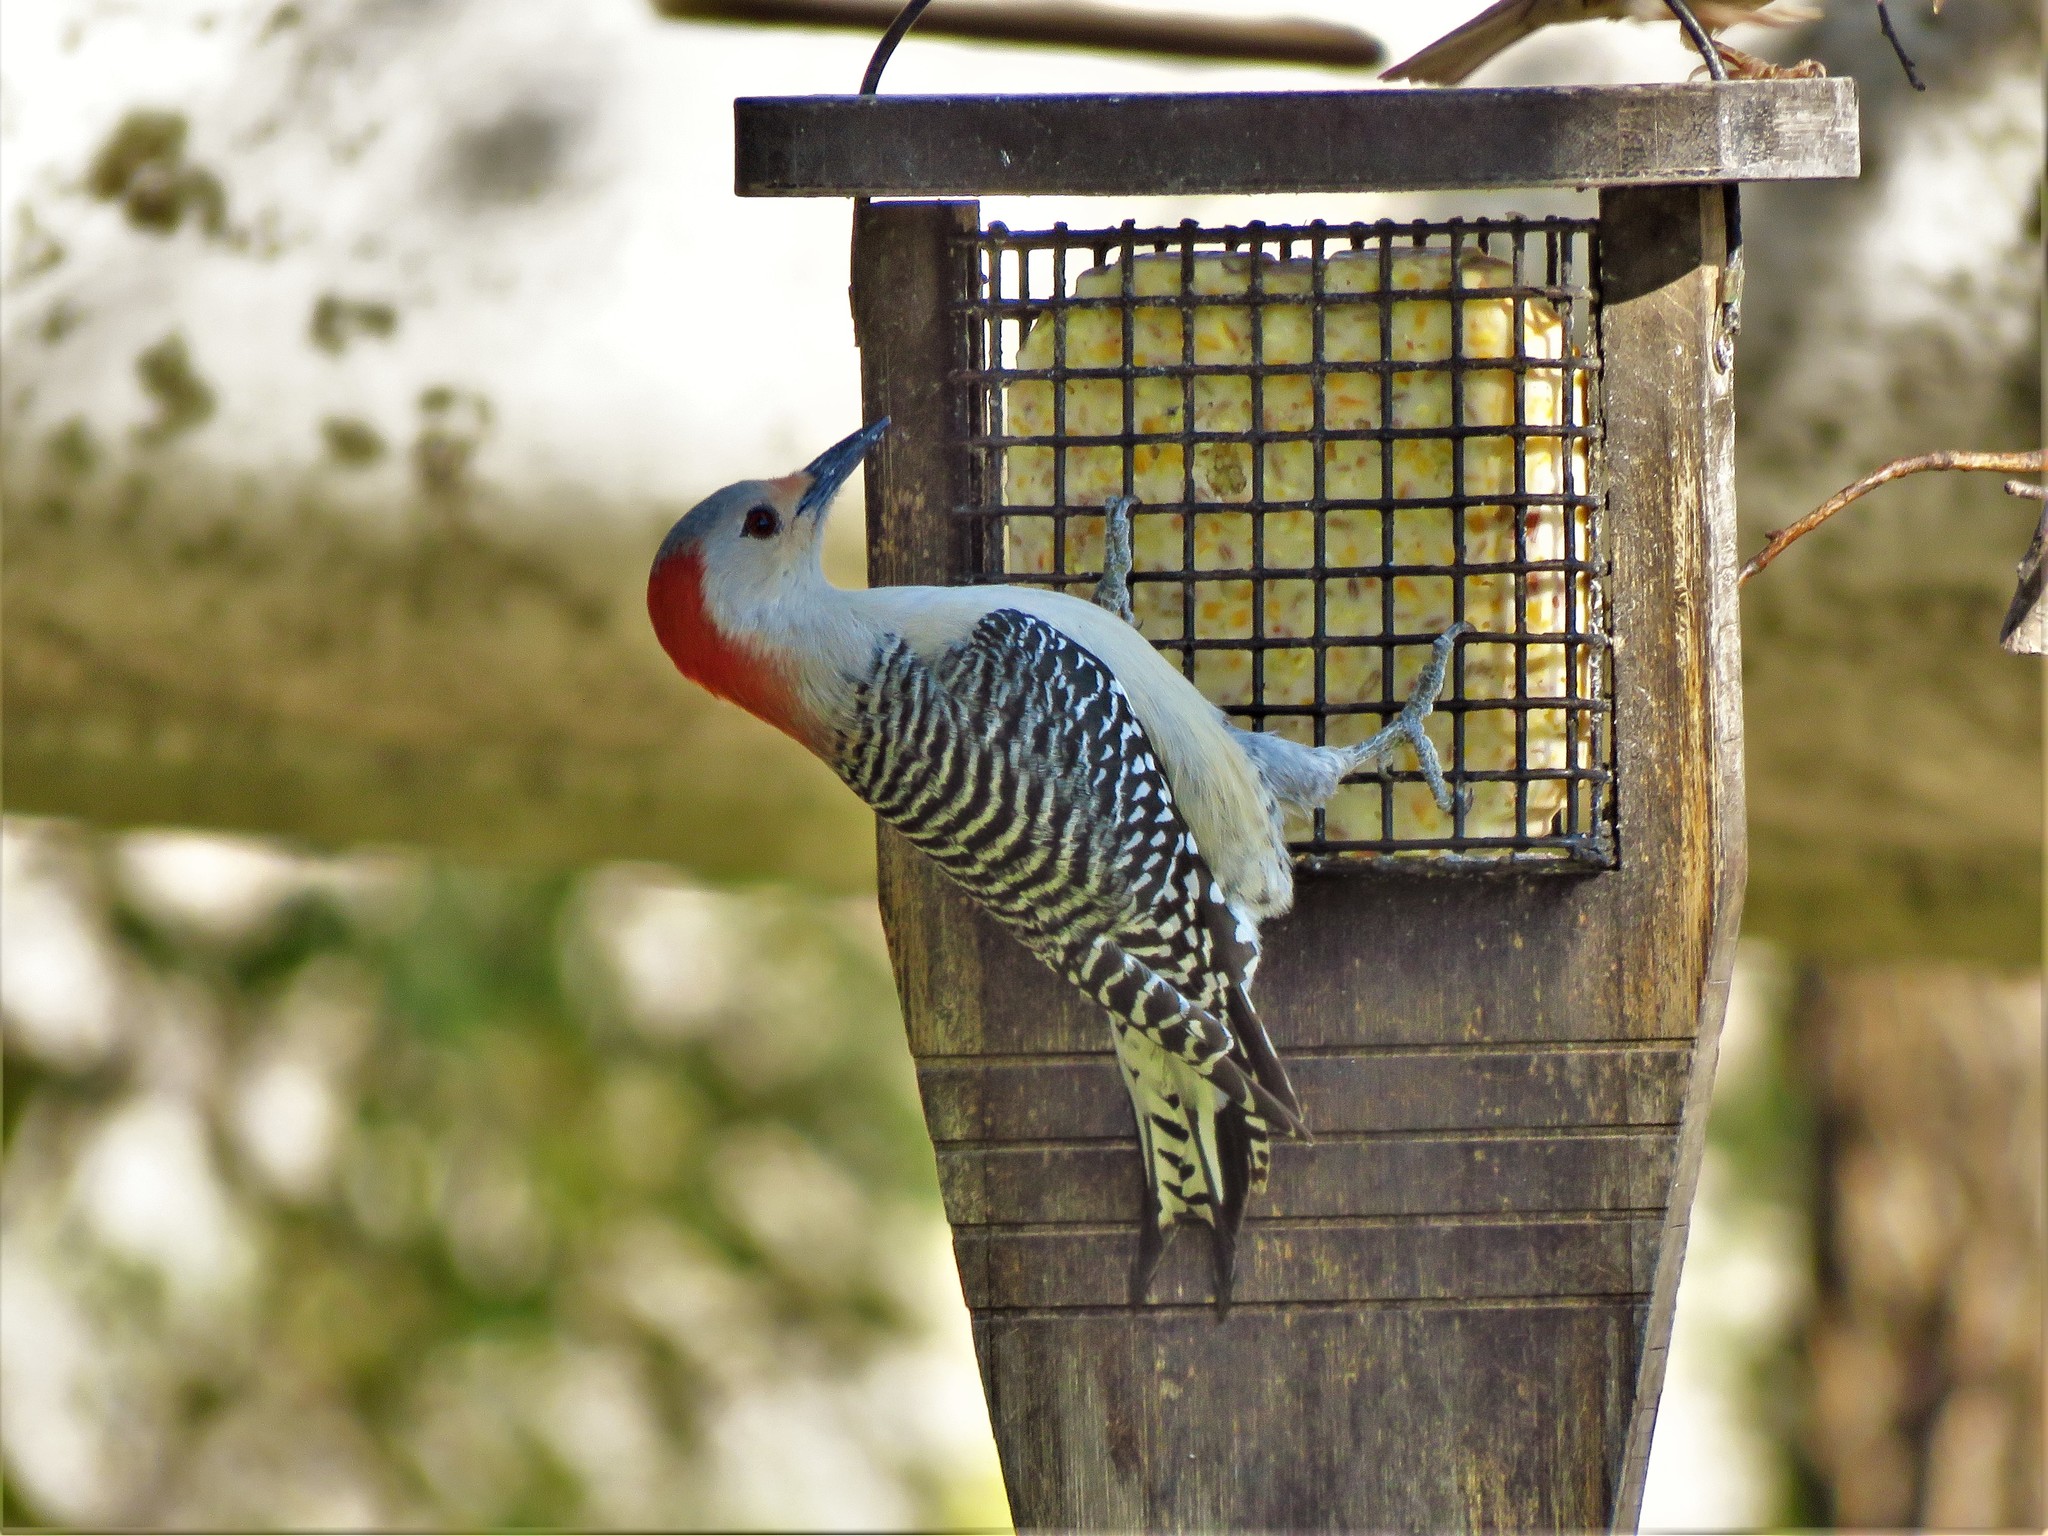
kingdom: Animalia
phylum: Chordata
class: Aves
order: Piciformes
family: Picidae
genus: Melanerpes
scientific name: Melanerpes carolinus
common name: Red-bellied woodpecker
